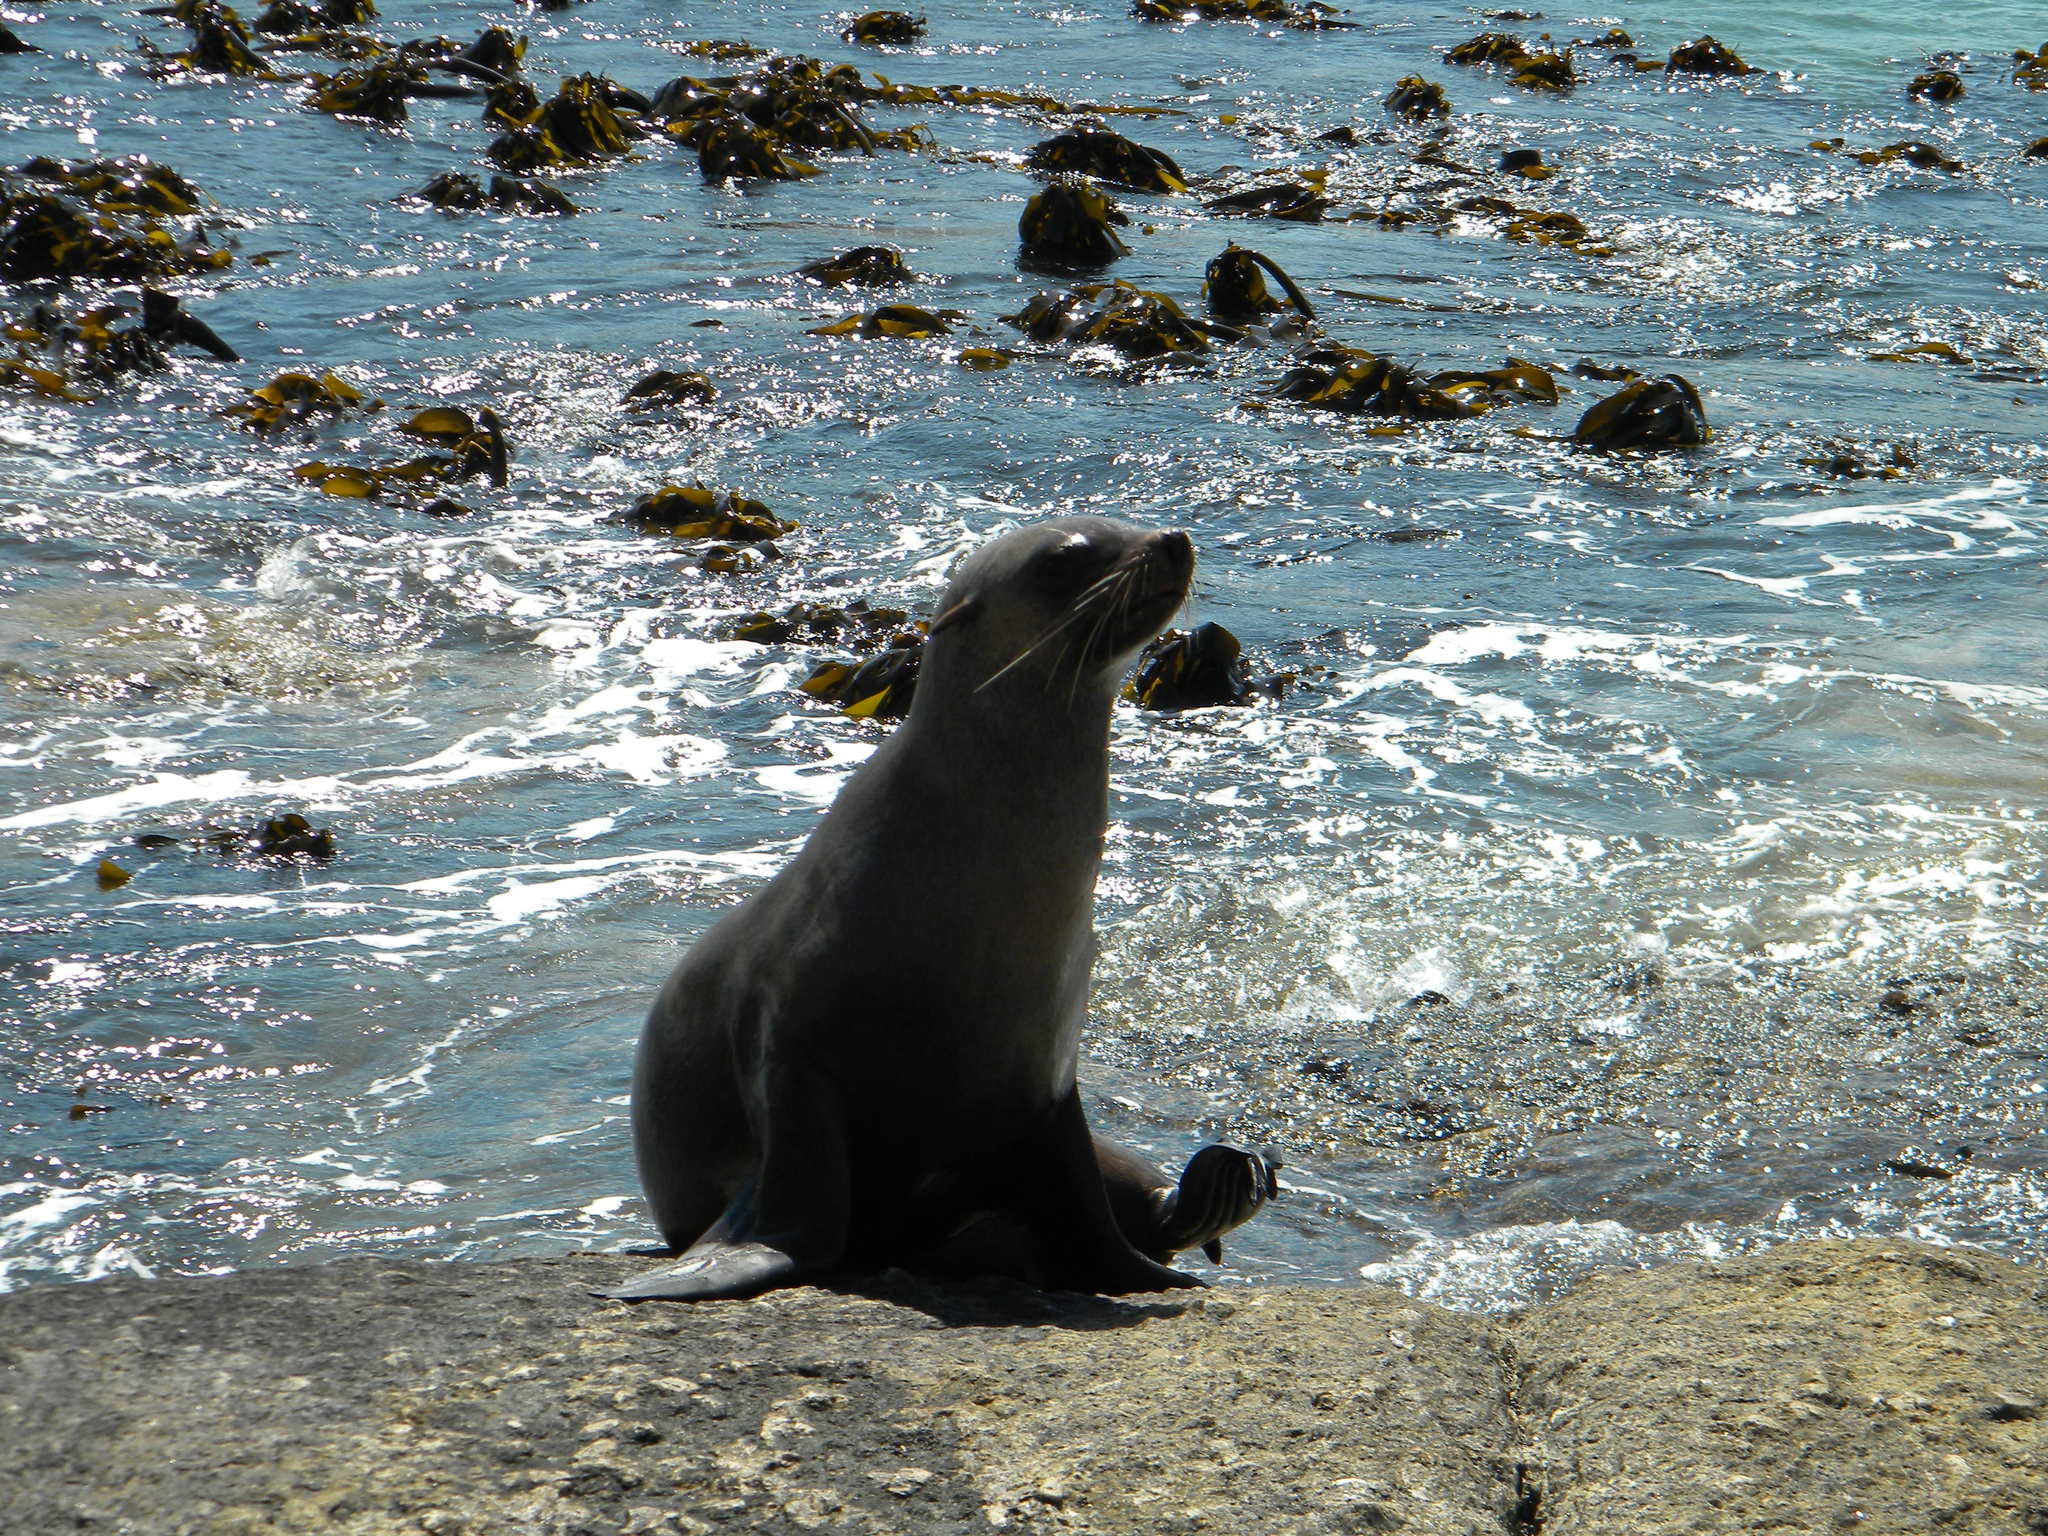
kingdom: Animalia
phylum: Chordata
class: Mammalia
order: Carnivora
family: Otariidae
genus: Arctocephalus
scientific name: Arctocephalus pusillus
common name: Brown fur seal
